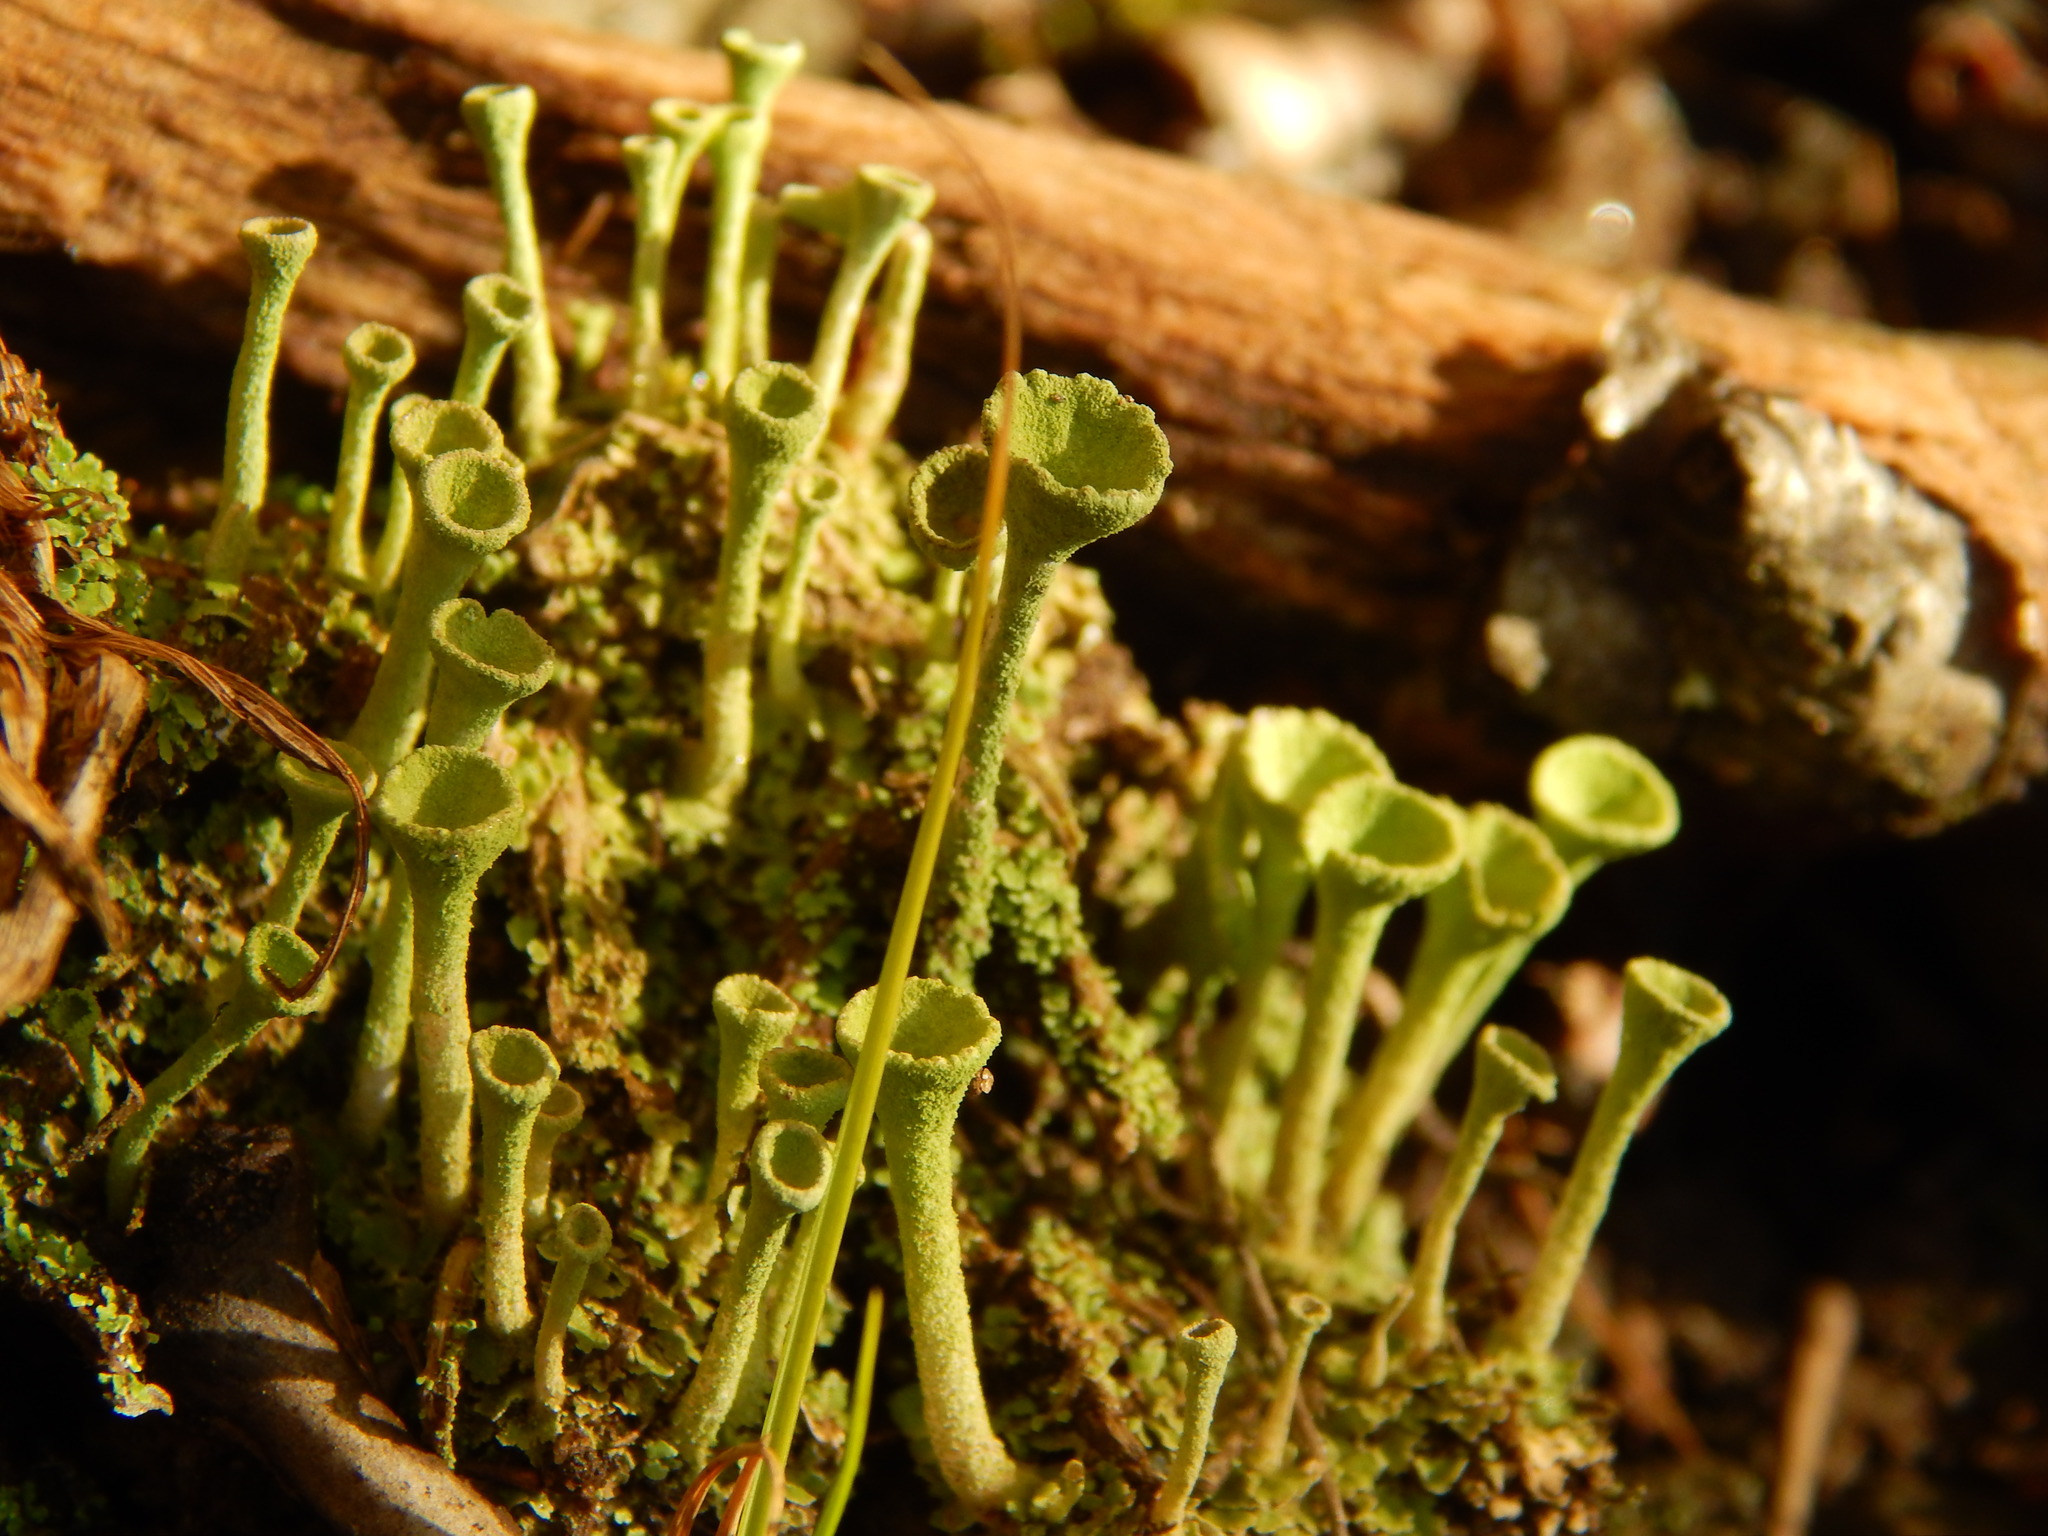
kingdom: Fungi
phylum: Ascomycota
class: Lecanoromycetes
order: Lecanorales
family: Cladoniaceae
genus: Cladonia
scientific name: Cladonia fimbriata
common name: Powdered trumpet lichen
